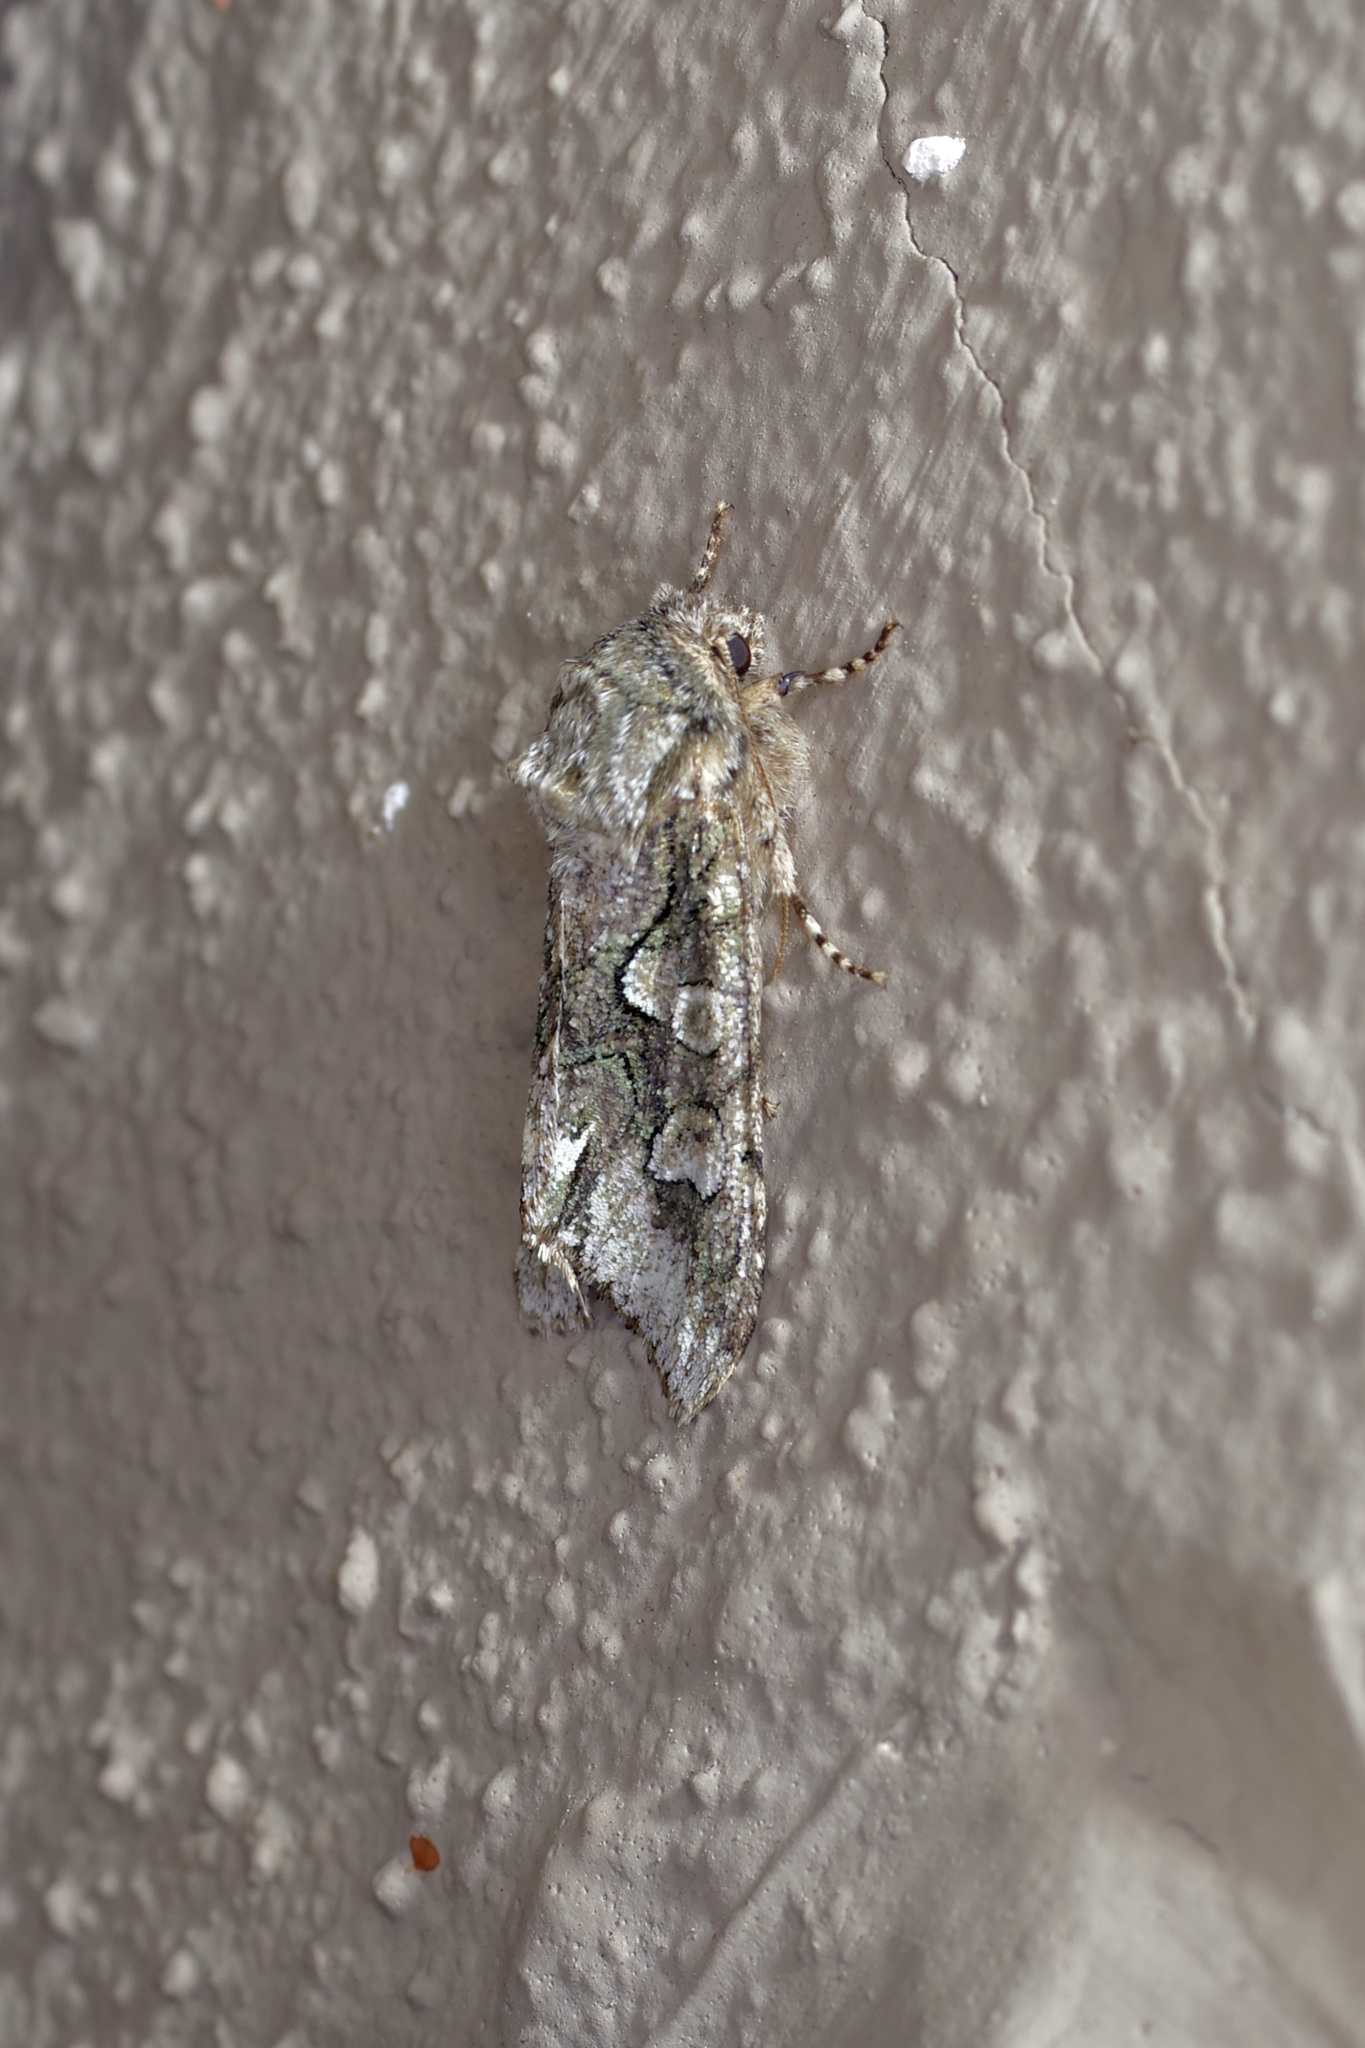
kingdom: Animalia
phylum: Arthropoda
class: Insecta
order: Lepidoptera
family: Noctuidae
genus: Psaphida
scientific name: Psaphida resumens
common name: Figure-eight sallow
